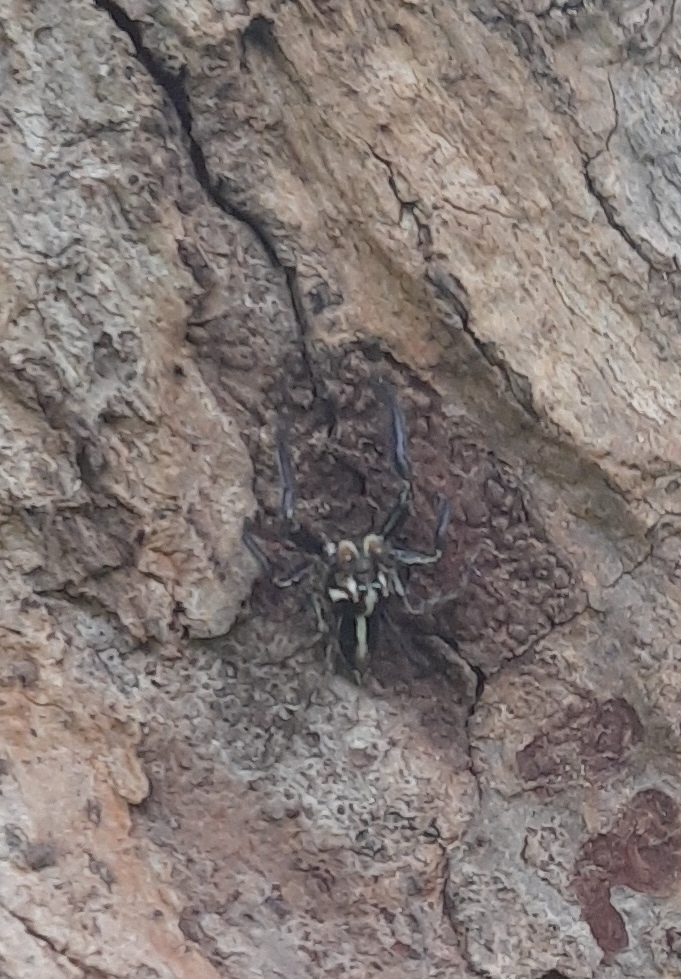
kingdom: Animalia
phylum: Arthropoda
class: Arachnida
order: Araneae
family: Salticidae
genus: Plexippus
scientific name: Plexippus paykulli
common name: Pantropical jumper
